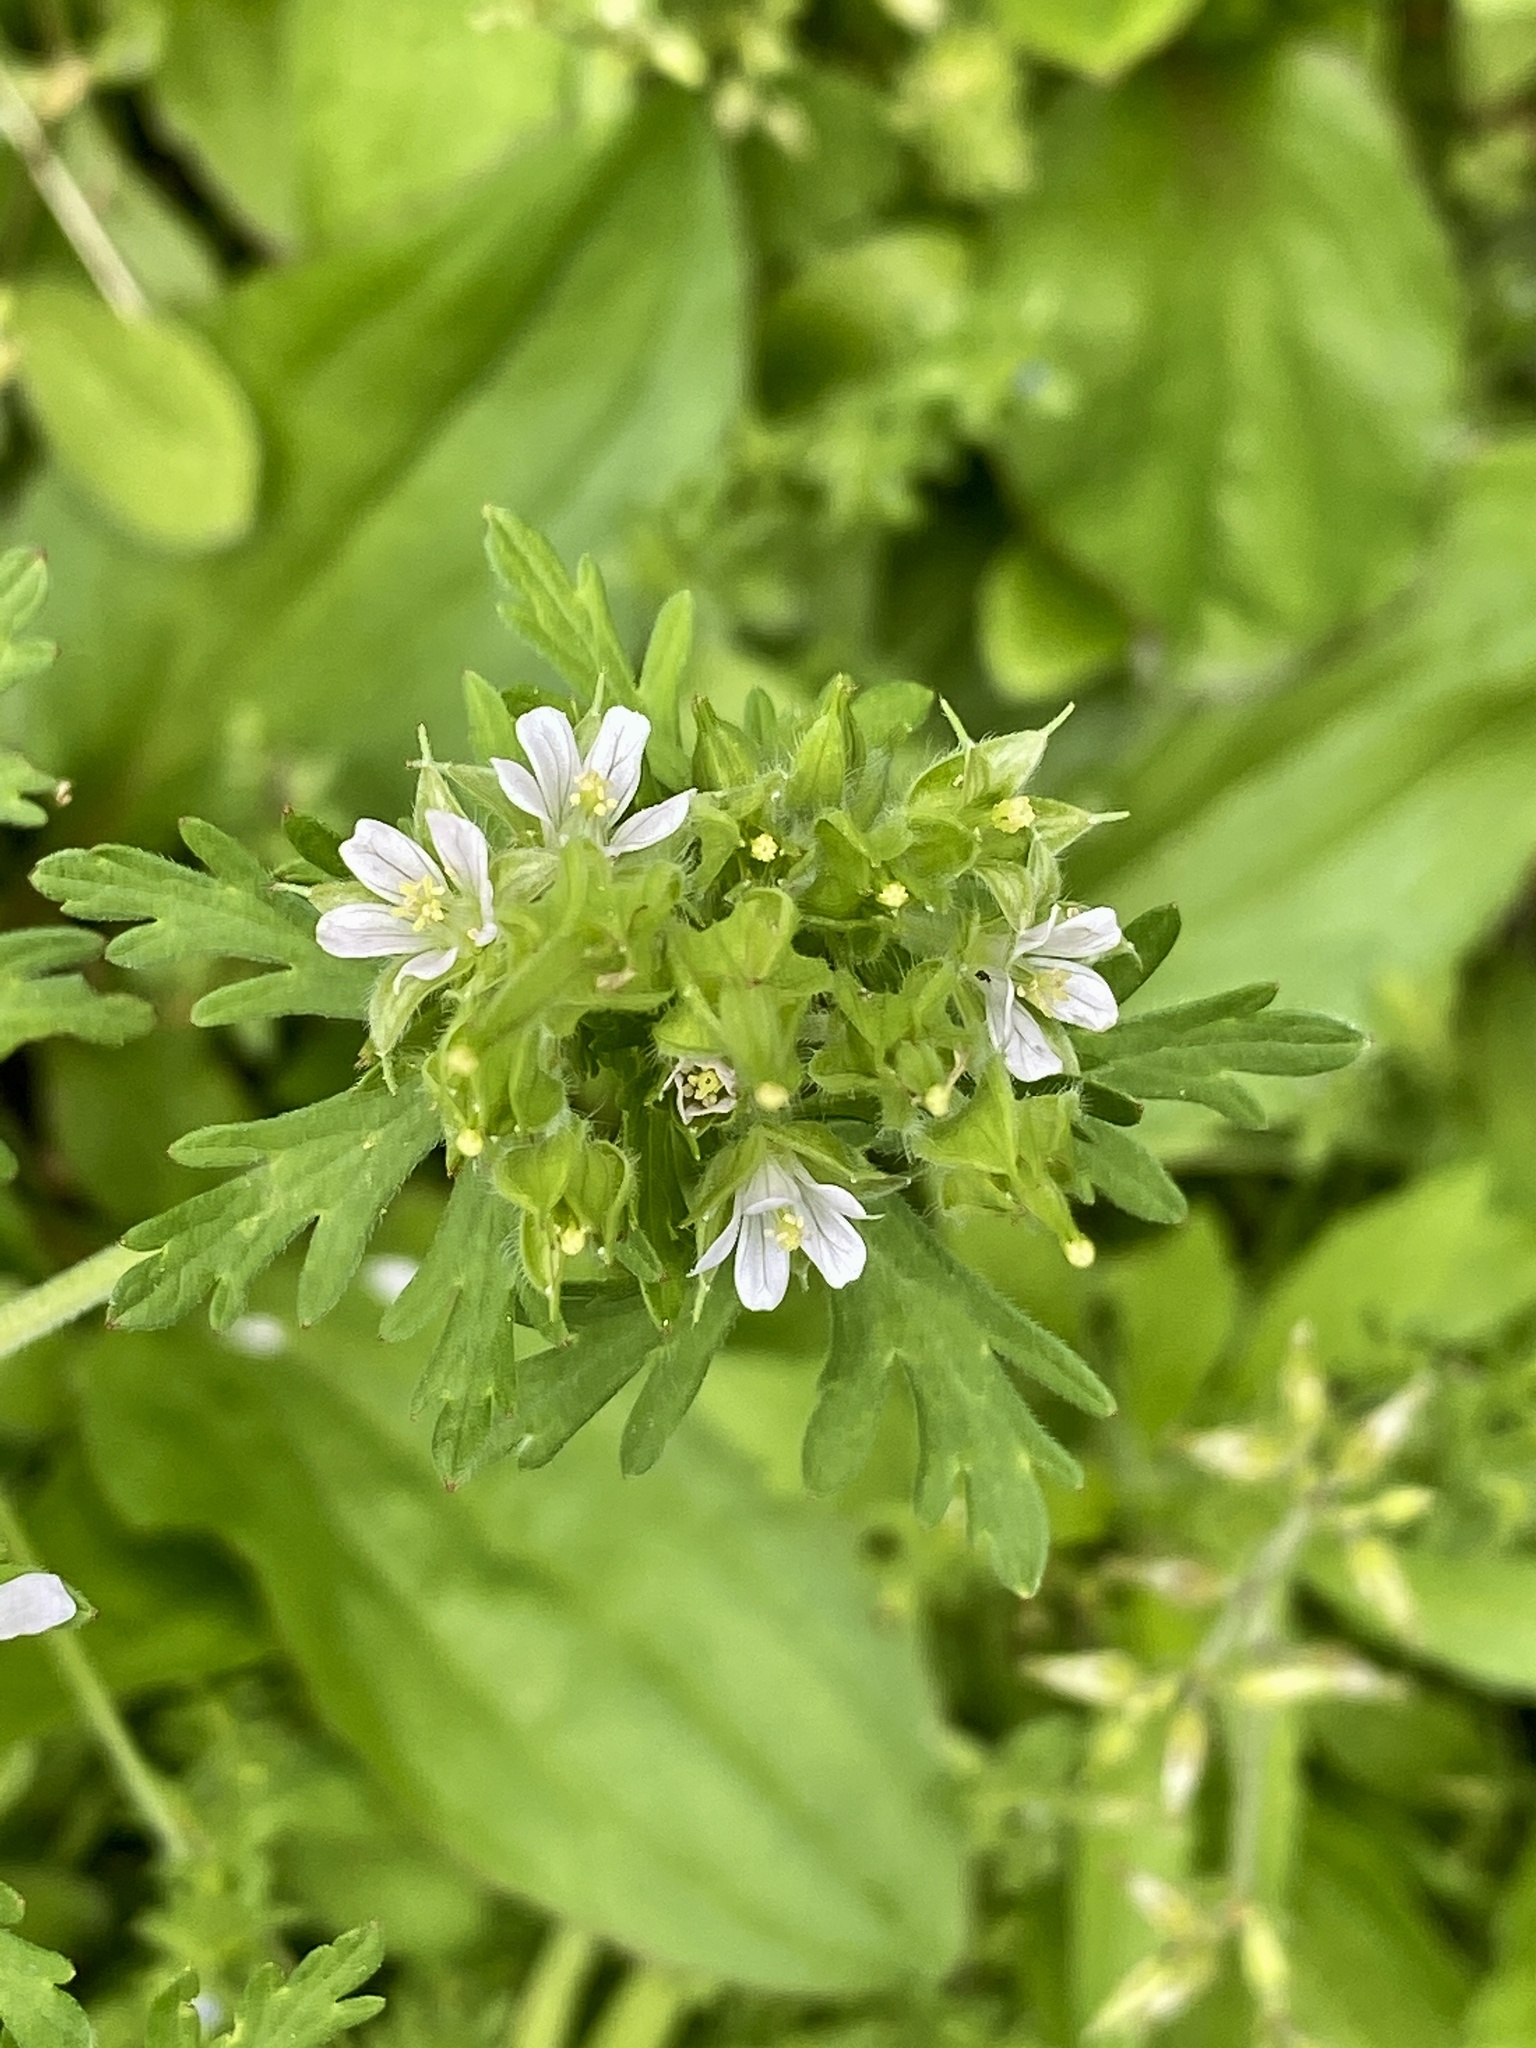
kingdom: Plantae
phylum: Tracheophyta
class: Magnoliopsida
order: Geraniales
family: Geraniaceae
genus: Geranium
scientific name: Geranium carolinianum
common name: Carolina crane's-bill
